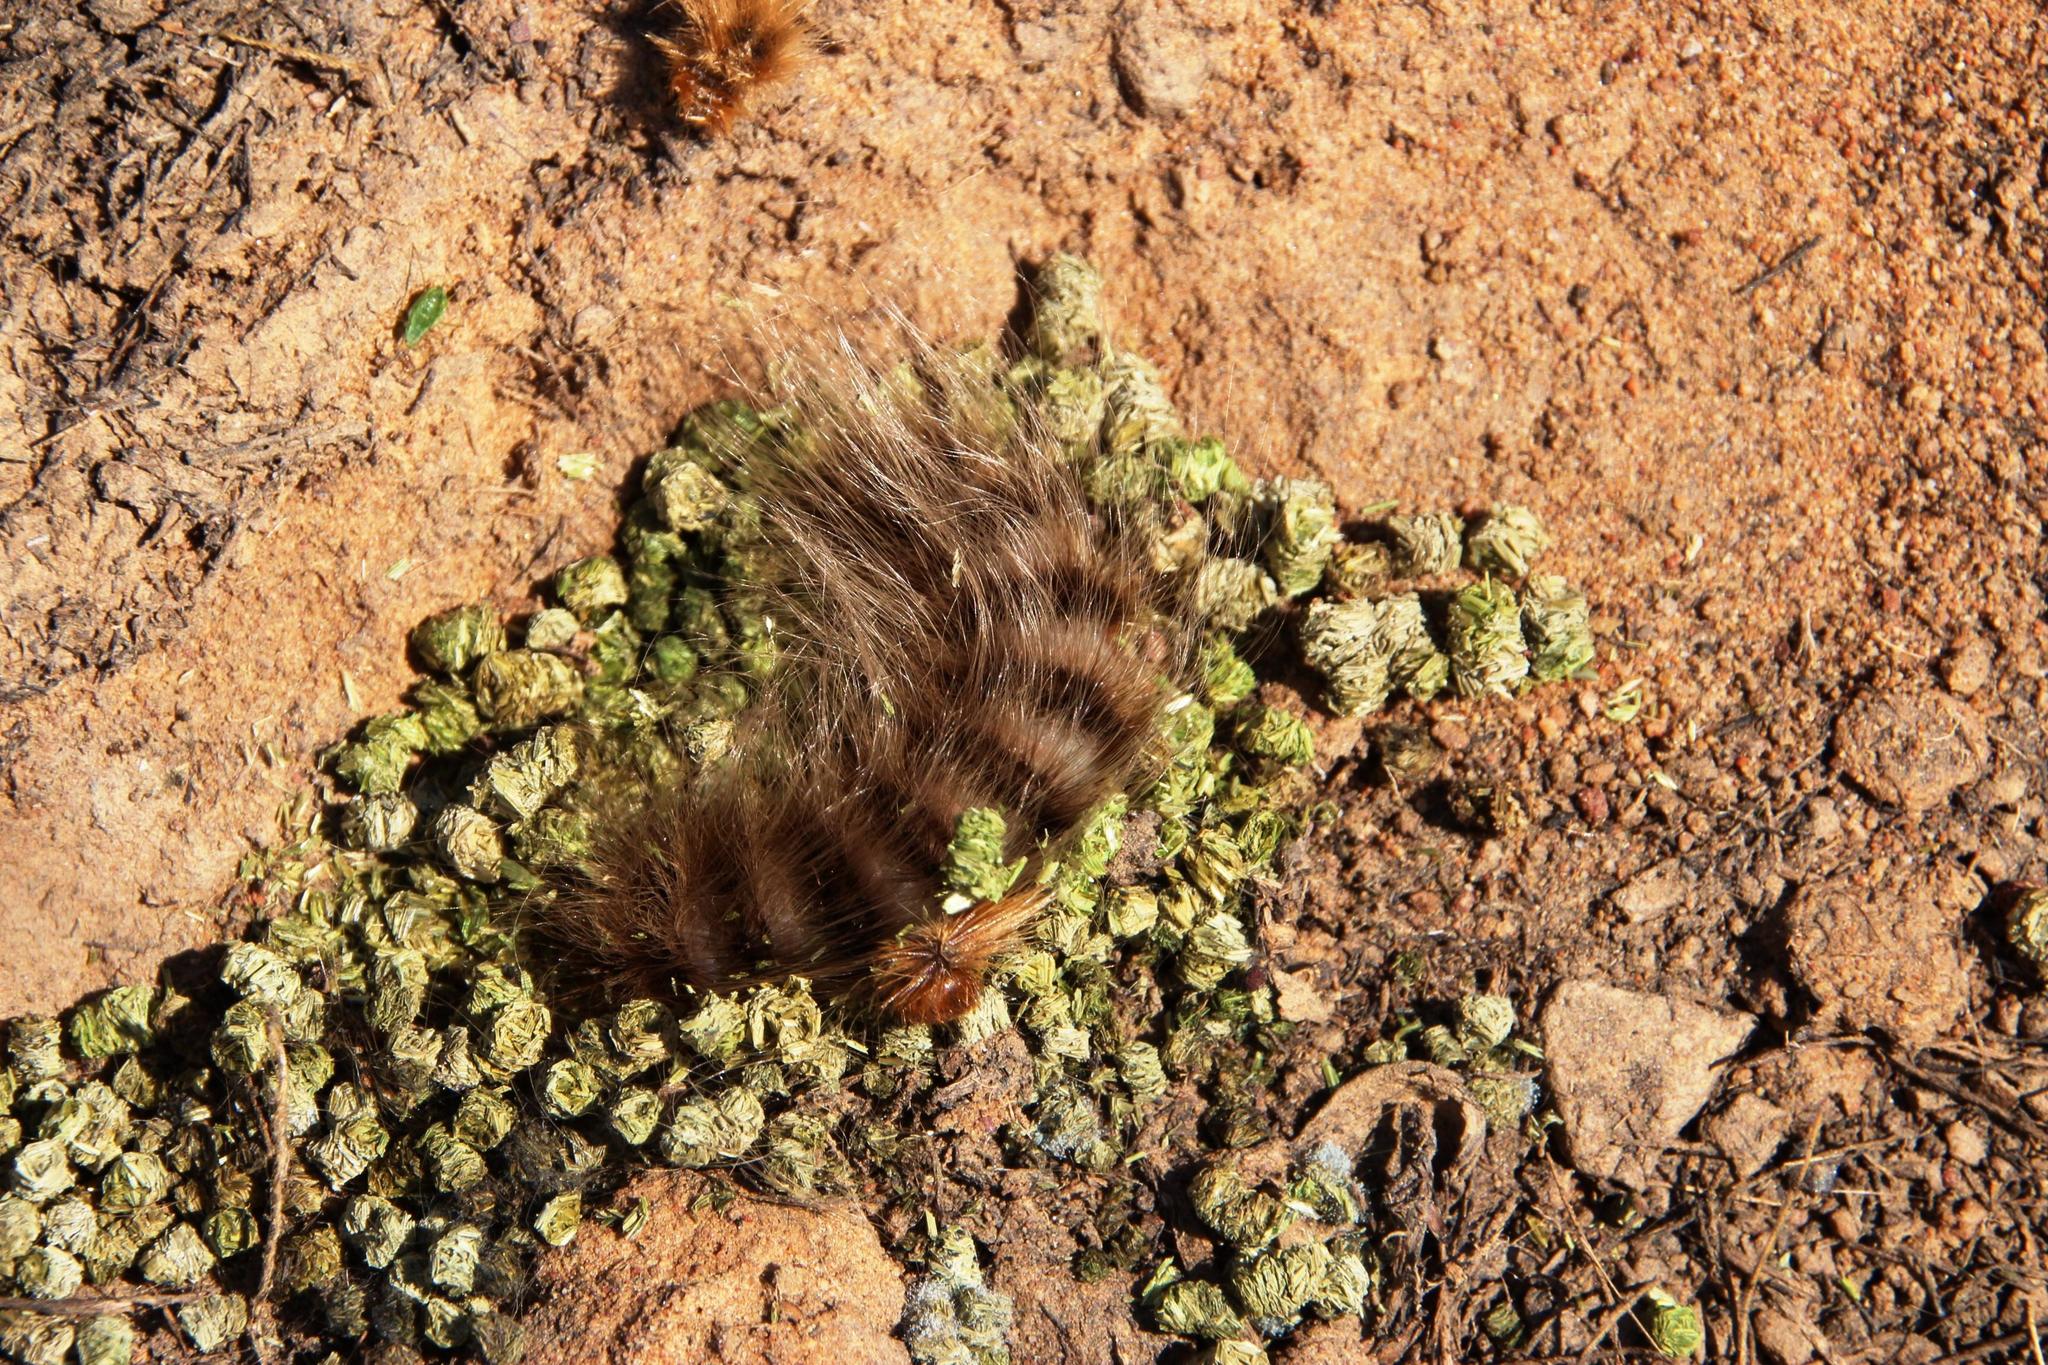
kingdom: Animalia
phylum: Arthropoda
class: Insecta
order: Lepidoptera
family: Eupterotidae
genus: Striphnopteryx
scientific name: Striphnopteryx edulis
